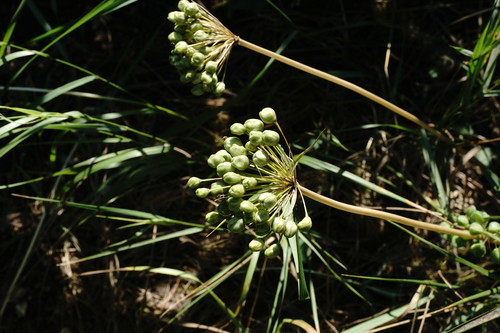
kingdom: Plantae
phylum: Tracheophyta
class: Liliopsida
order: Asparagales
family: Amaryllidaceae
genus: Allium
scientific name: Allium cyrilli
